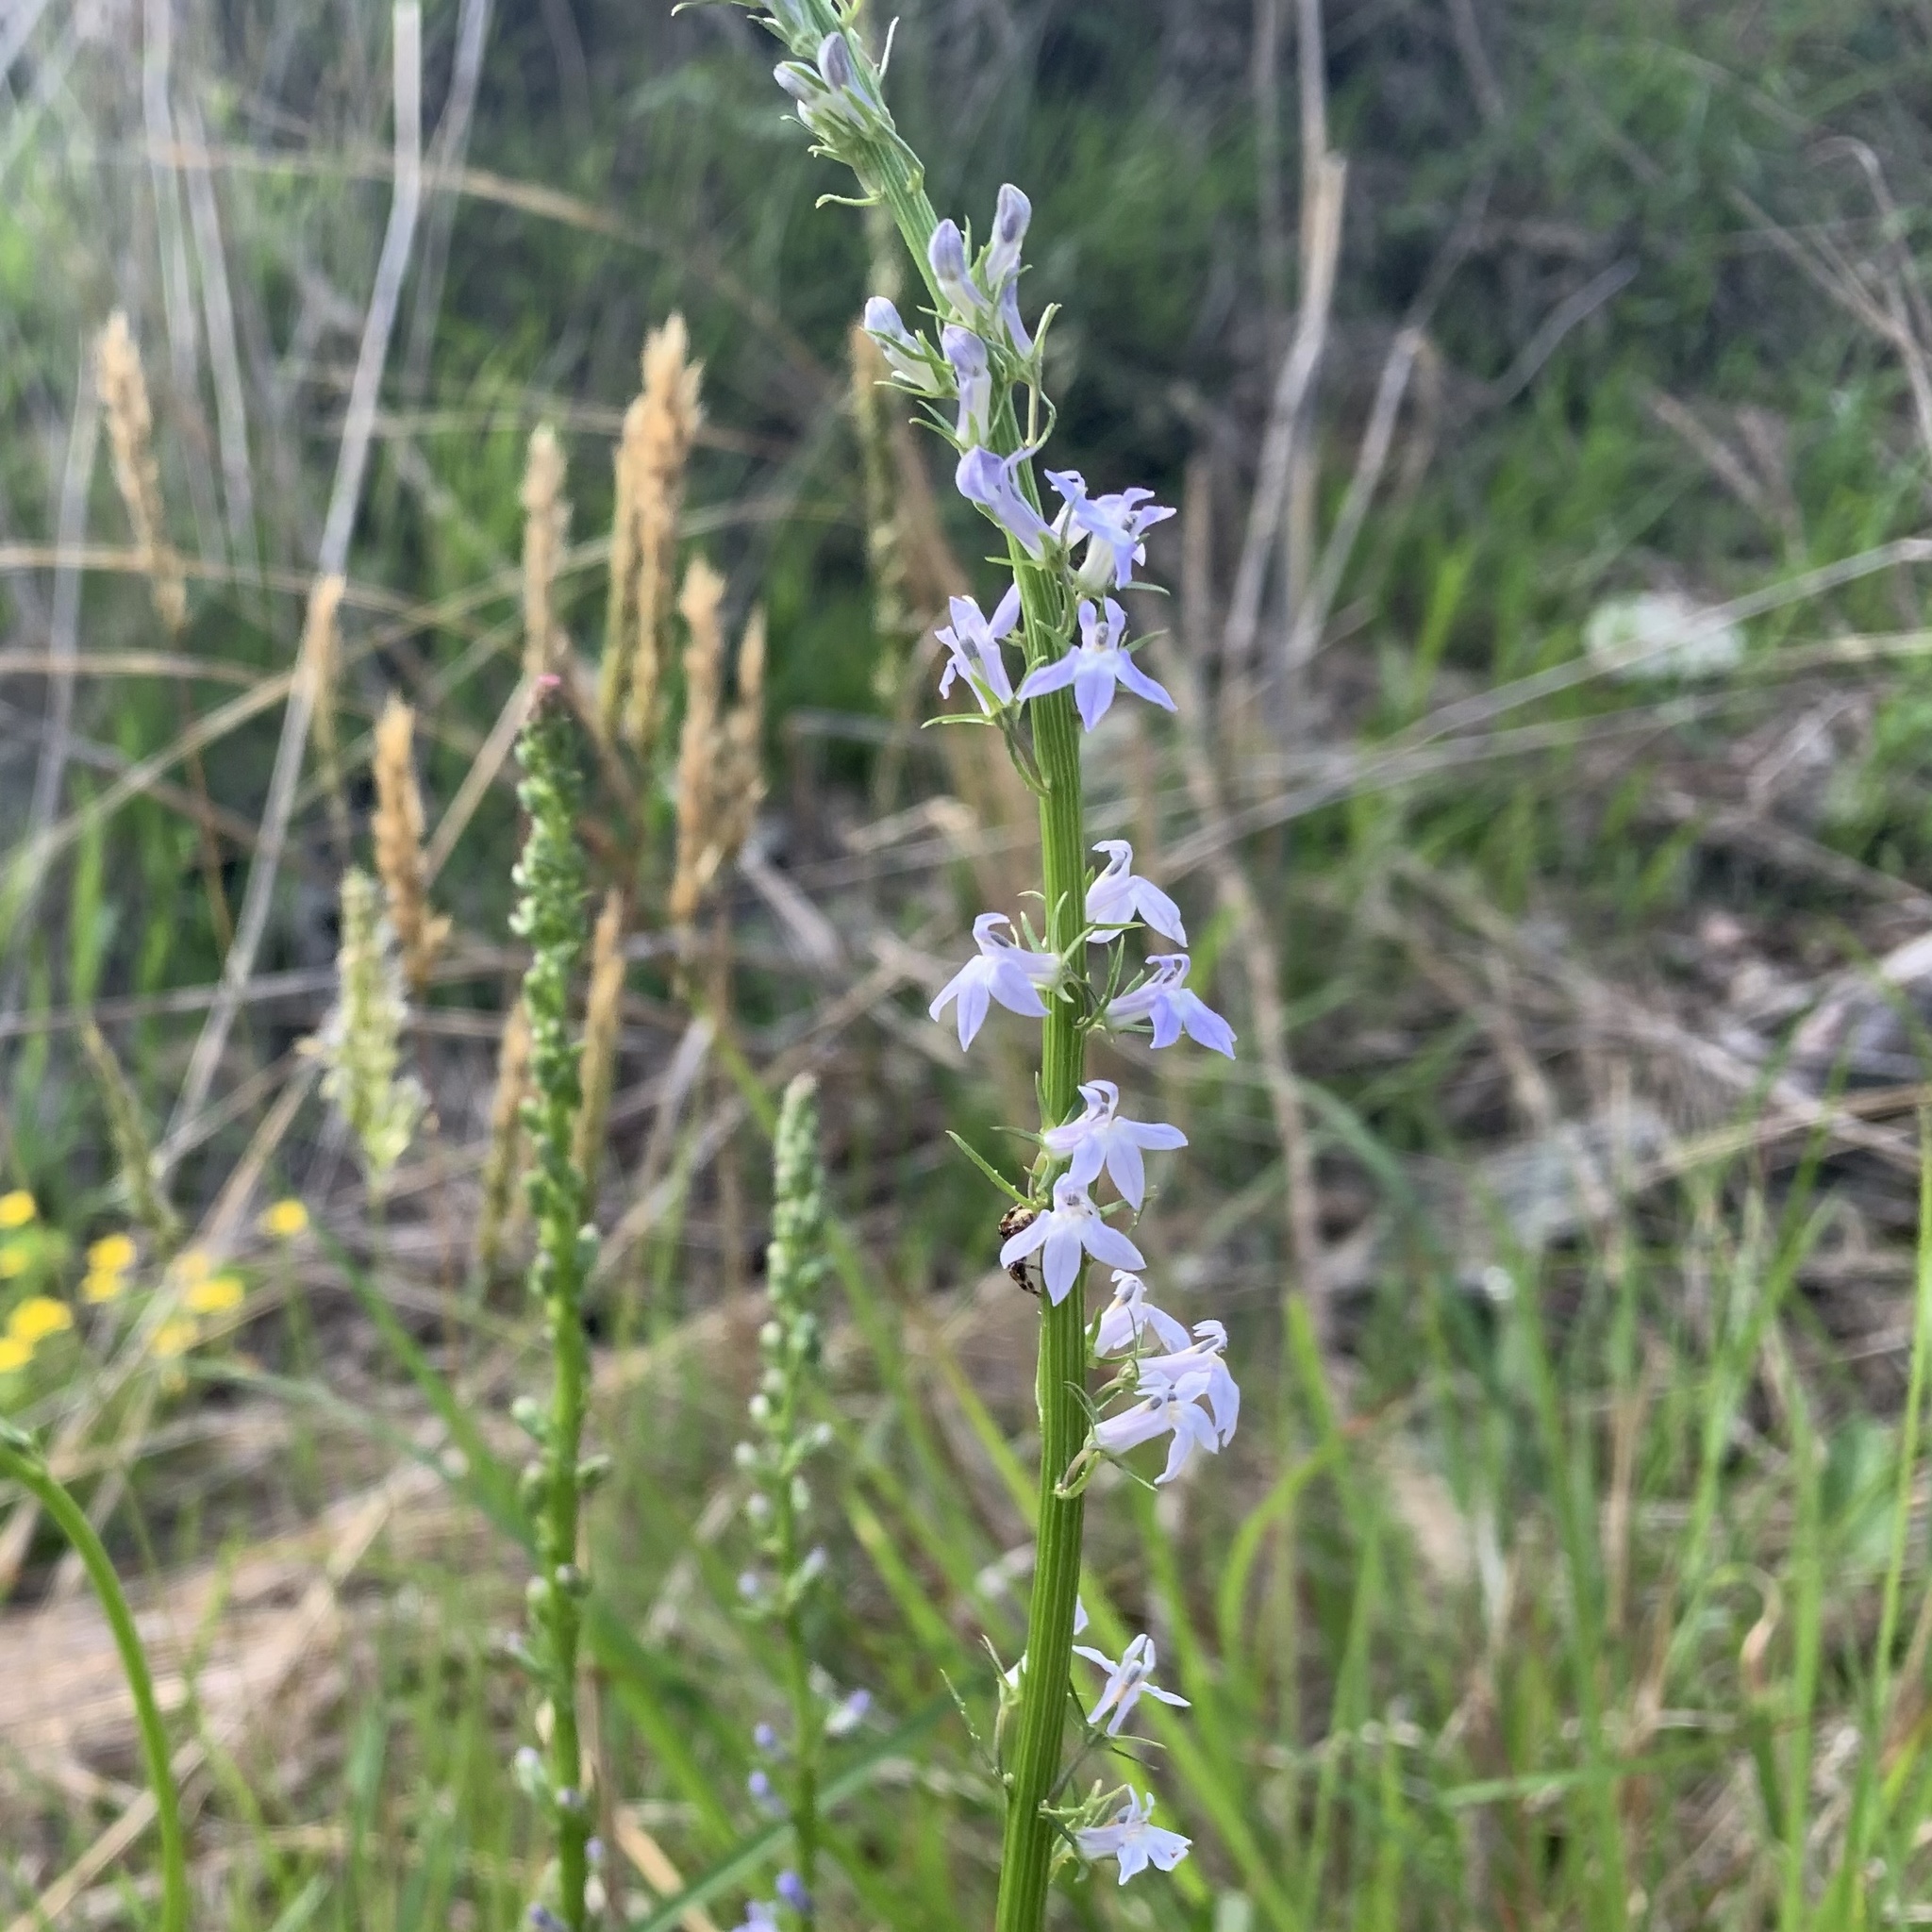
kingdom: Plantae
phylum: Tracheophyta
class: Magnoliopsida
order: Asterales
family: Campanulaceae
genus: Lobelia
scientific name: Lobelia spicata
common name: Pale-spike lobelia
